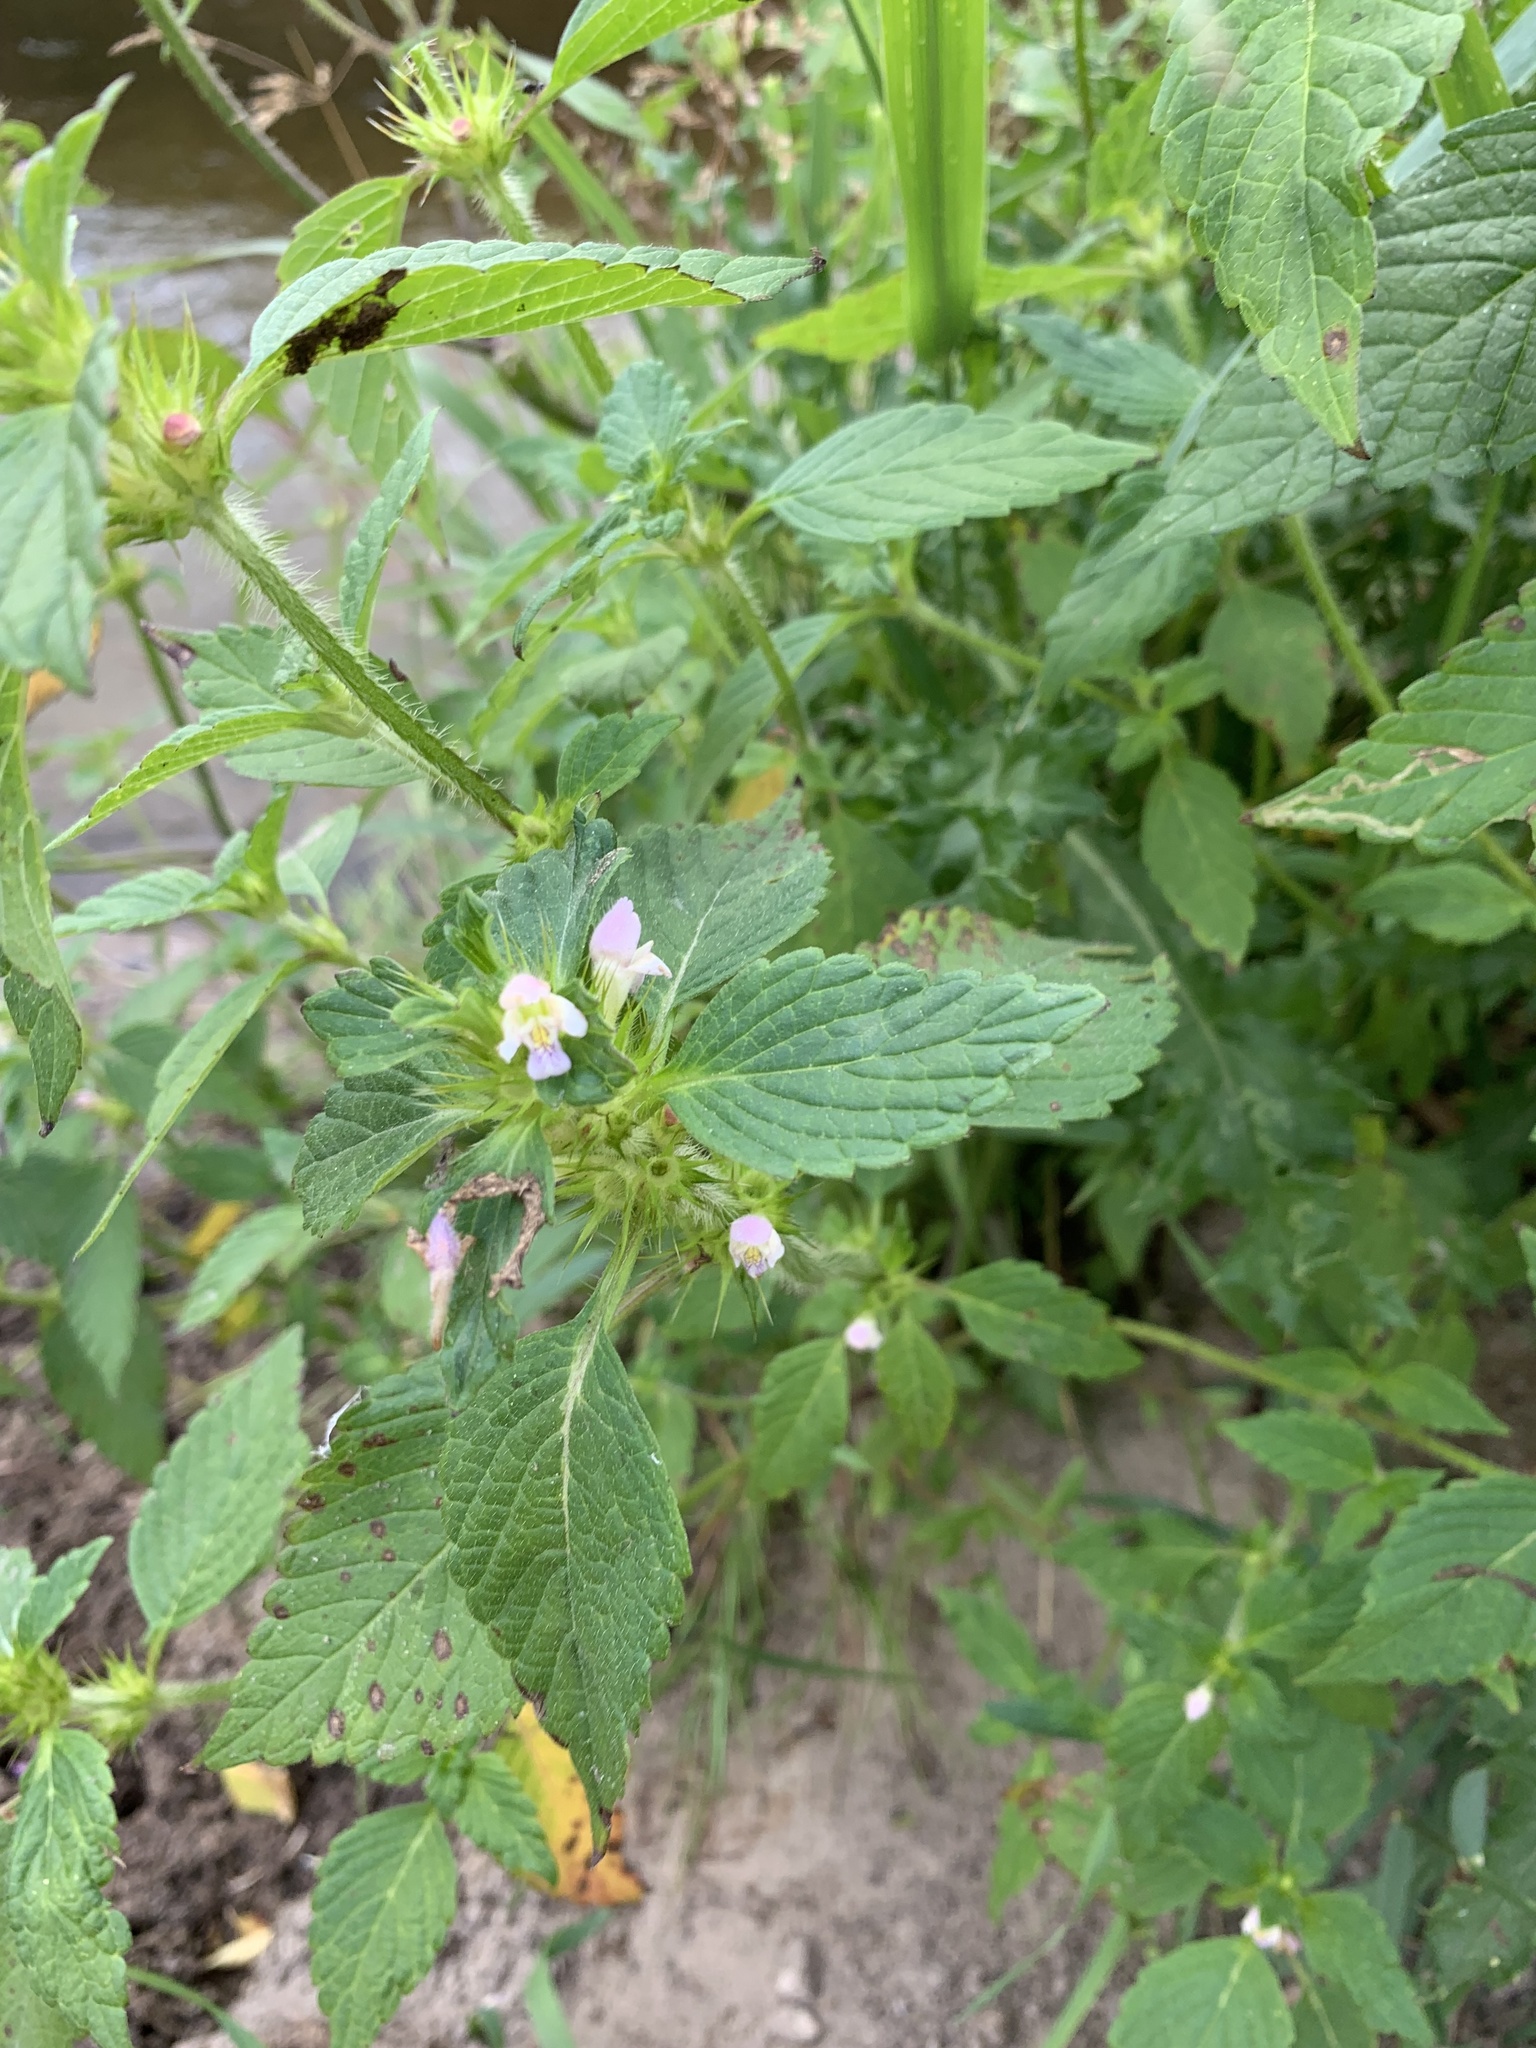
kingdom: Plantae
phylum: Tracheophyta
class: Magnoliopsida
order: Lamiales
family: Lamiaceae
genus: Galeopsis
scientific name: Galeopsis tetrahit
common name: Common hemp-nettle
